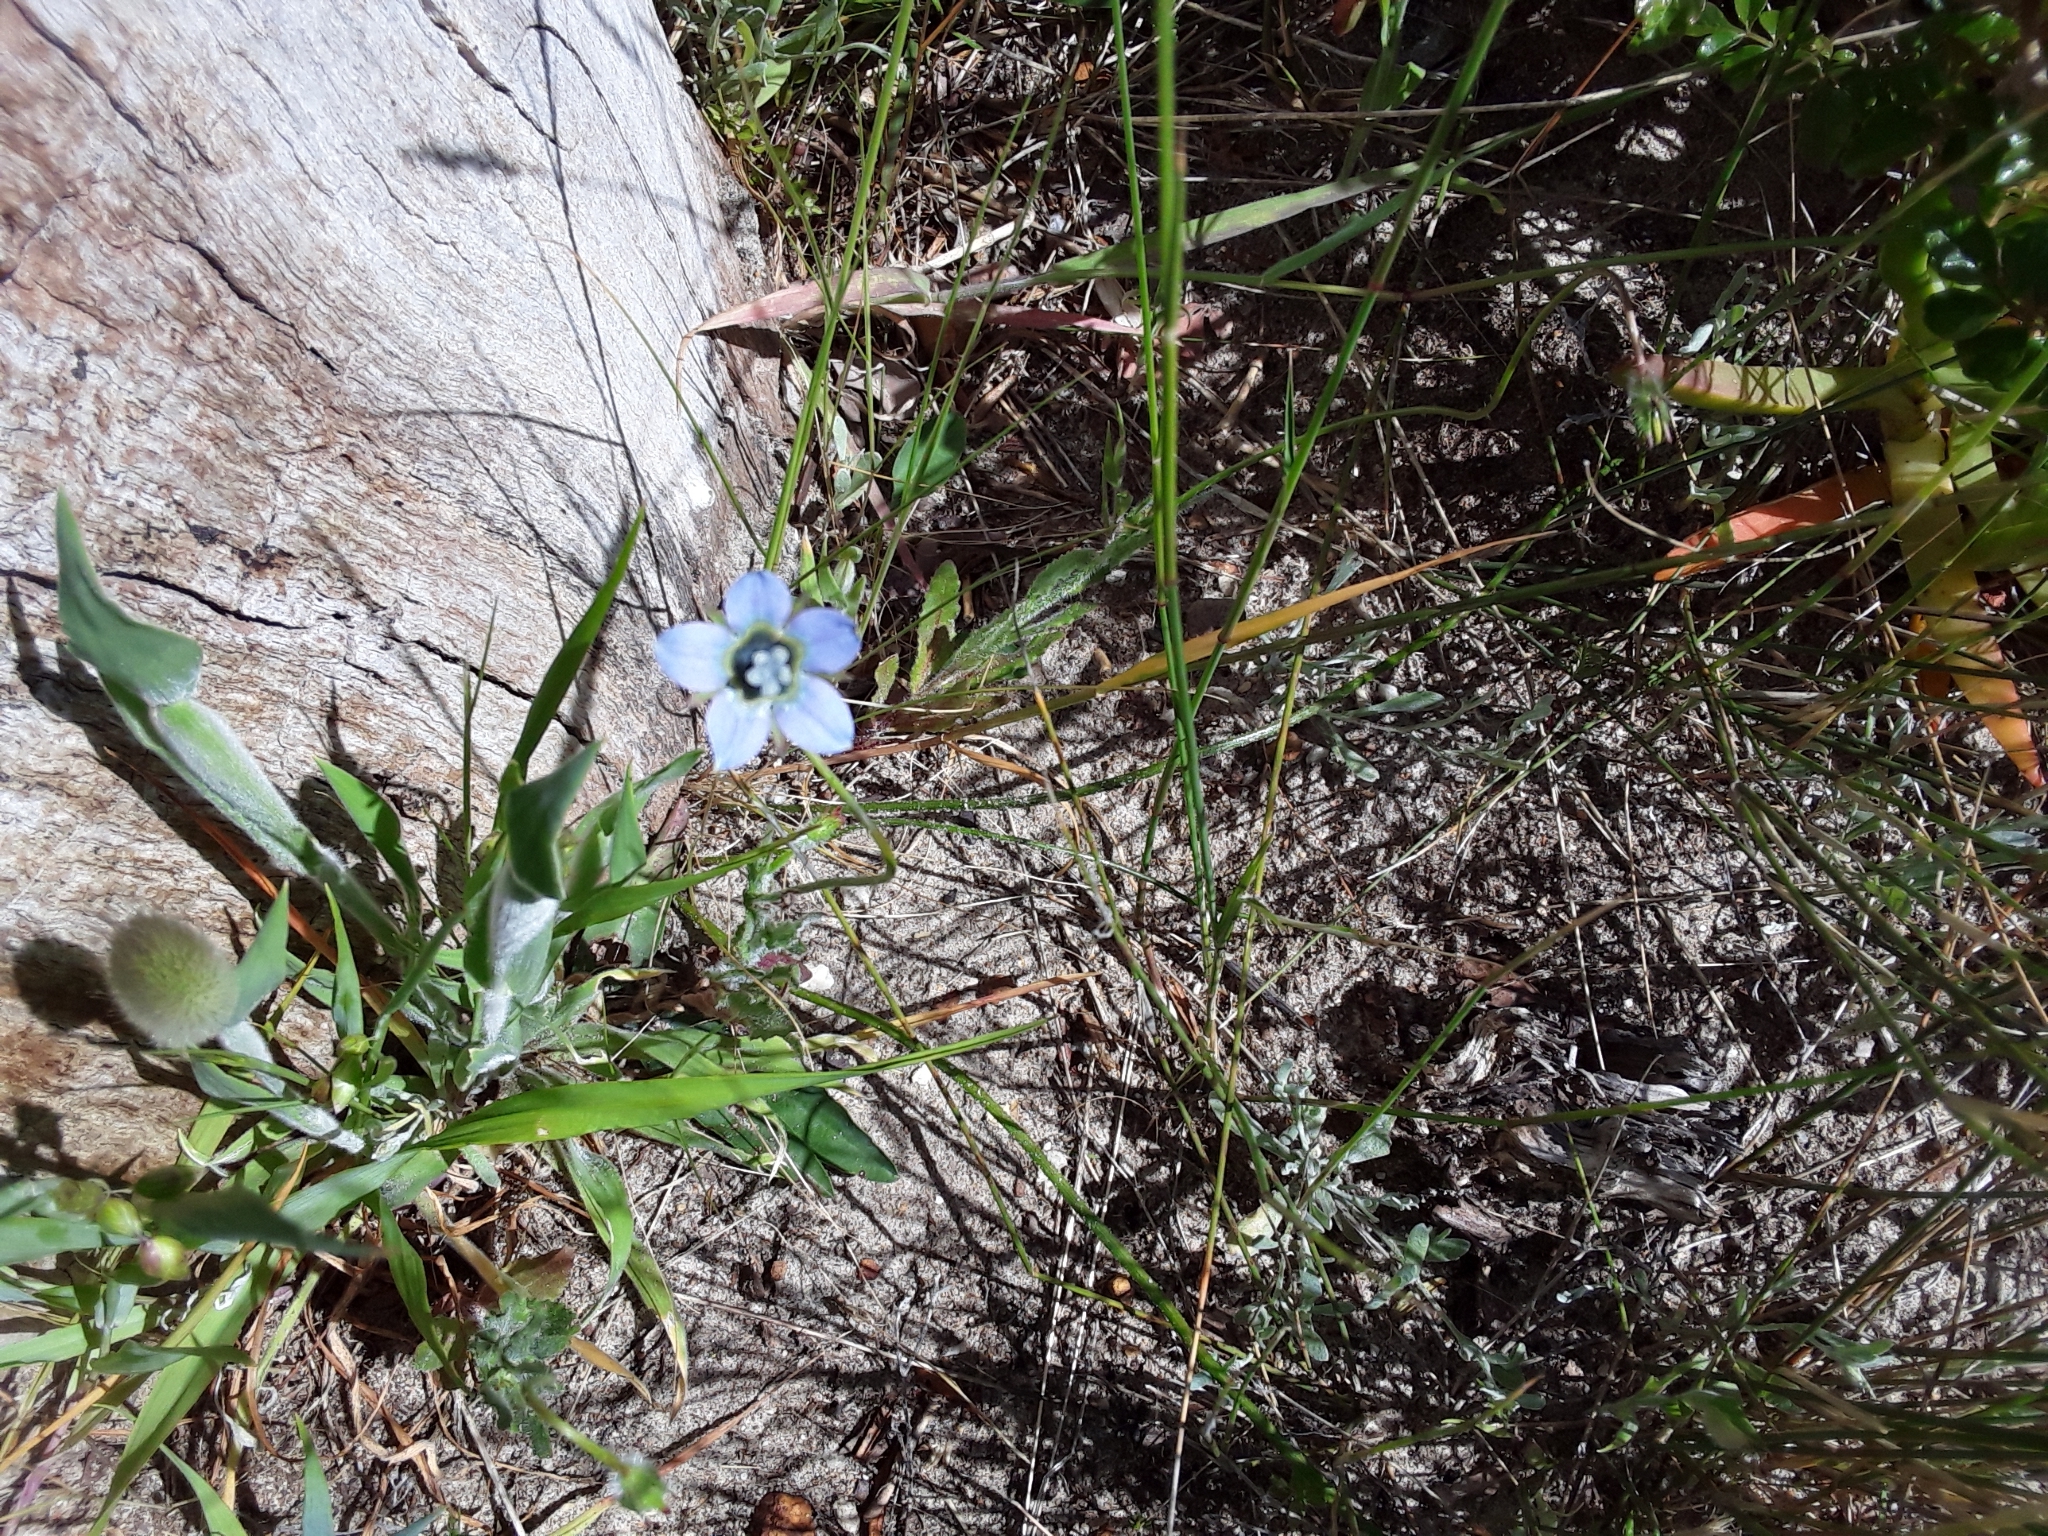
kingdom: Plantae
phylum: Tracheophyta
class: Magnoliopsida
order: Asterales
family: Campanulaceae
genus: Wahlenbergia
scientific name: Wahlenbergia capensis
